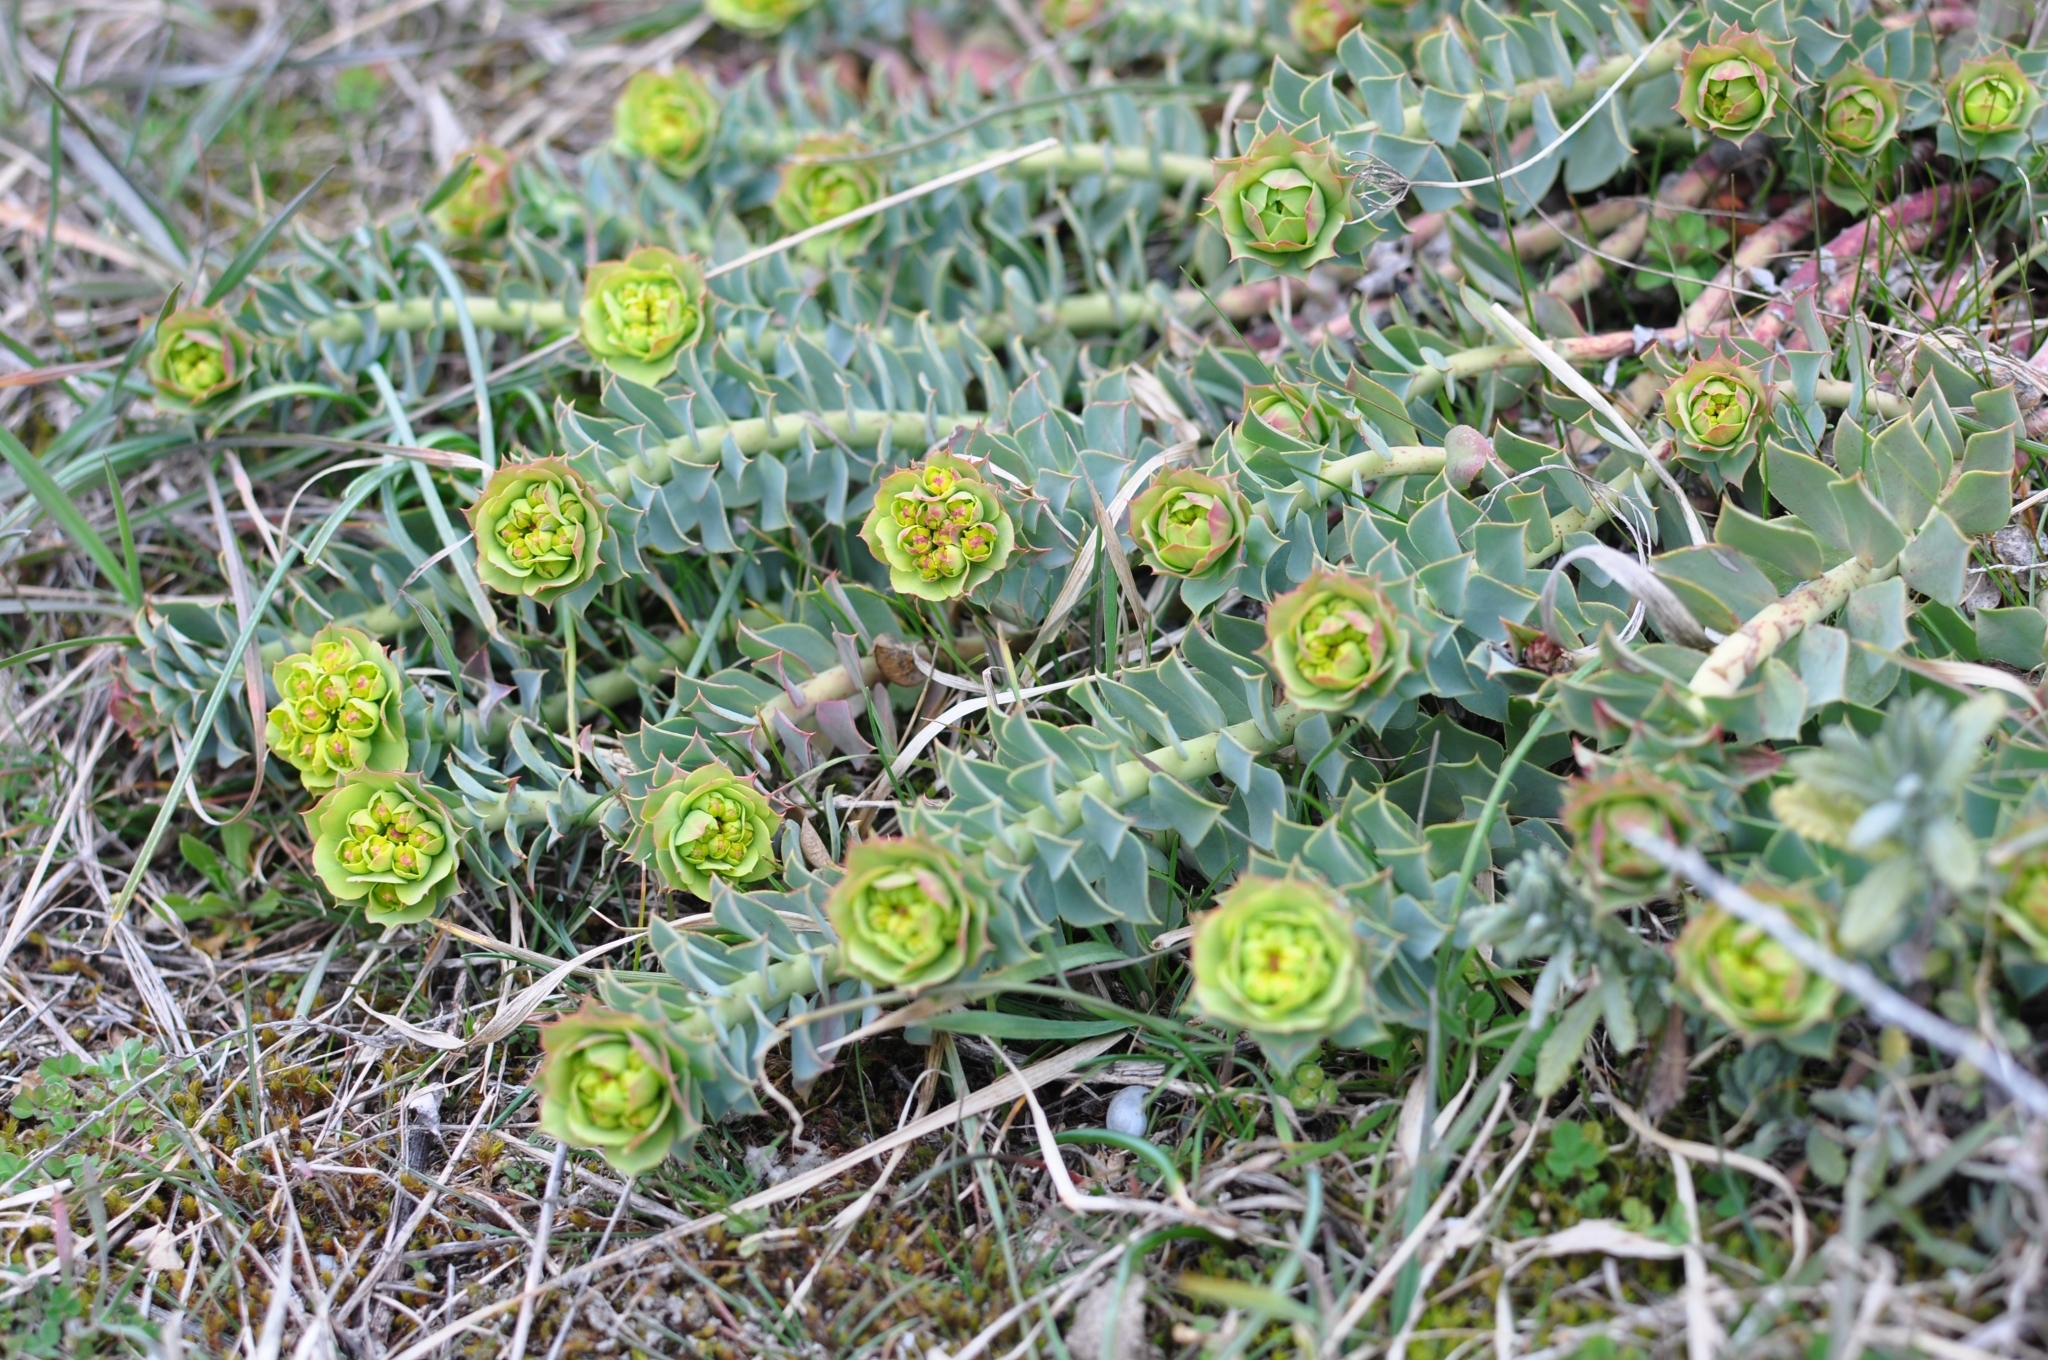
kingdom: Plantae
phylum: Tracheophyta
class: Magnoliopsida
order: Malpighiales
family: Euphorbiaceae
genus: Euphorbia
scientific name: Euphorbia myrsinites
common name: Myrtle spurge
